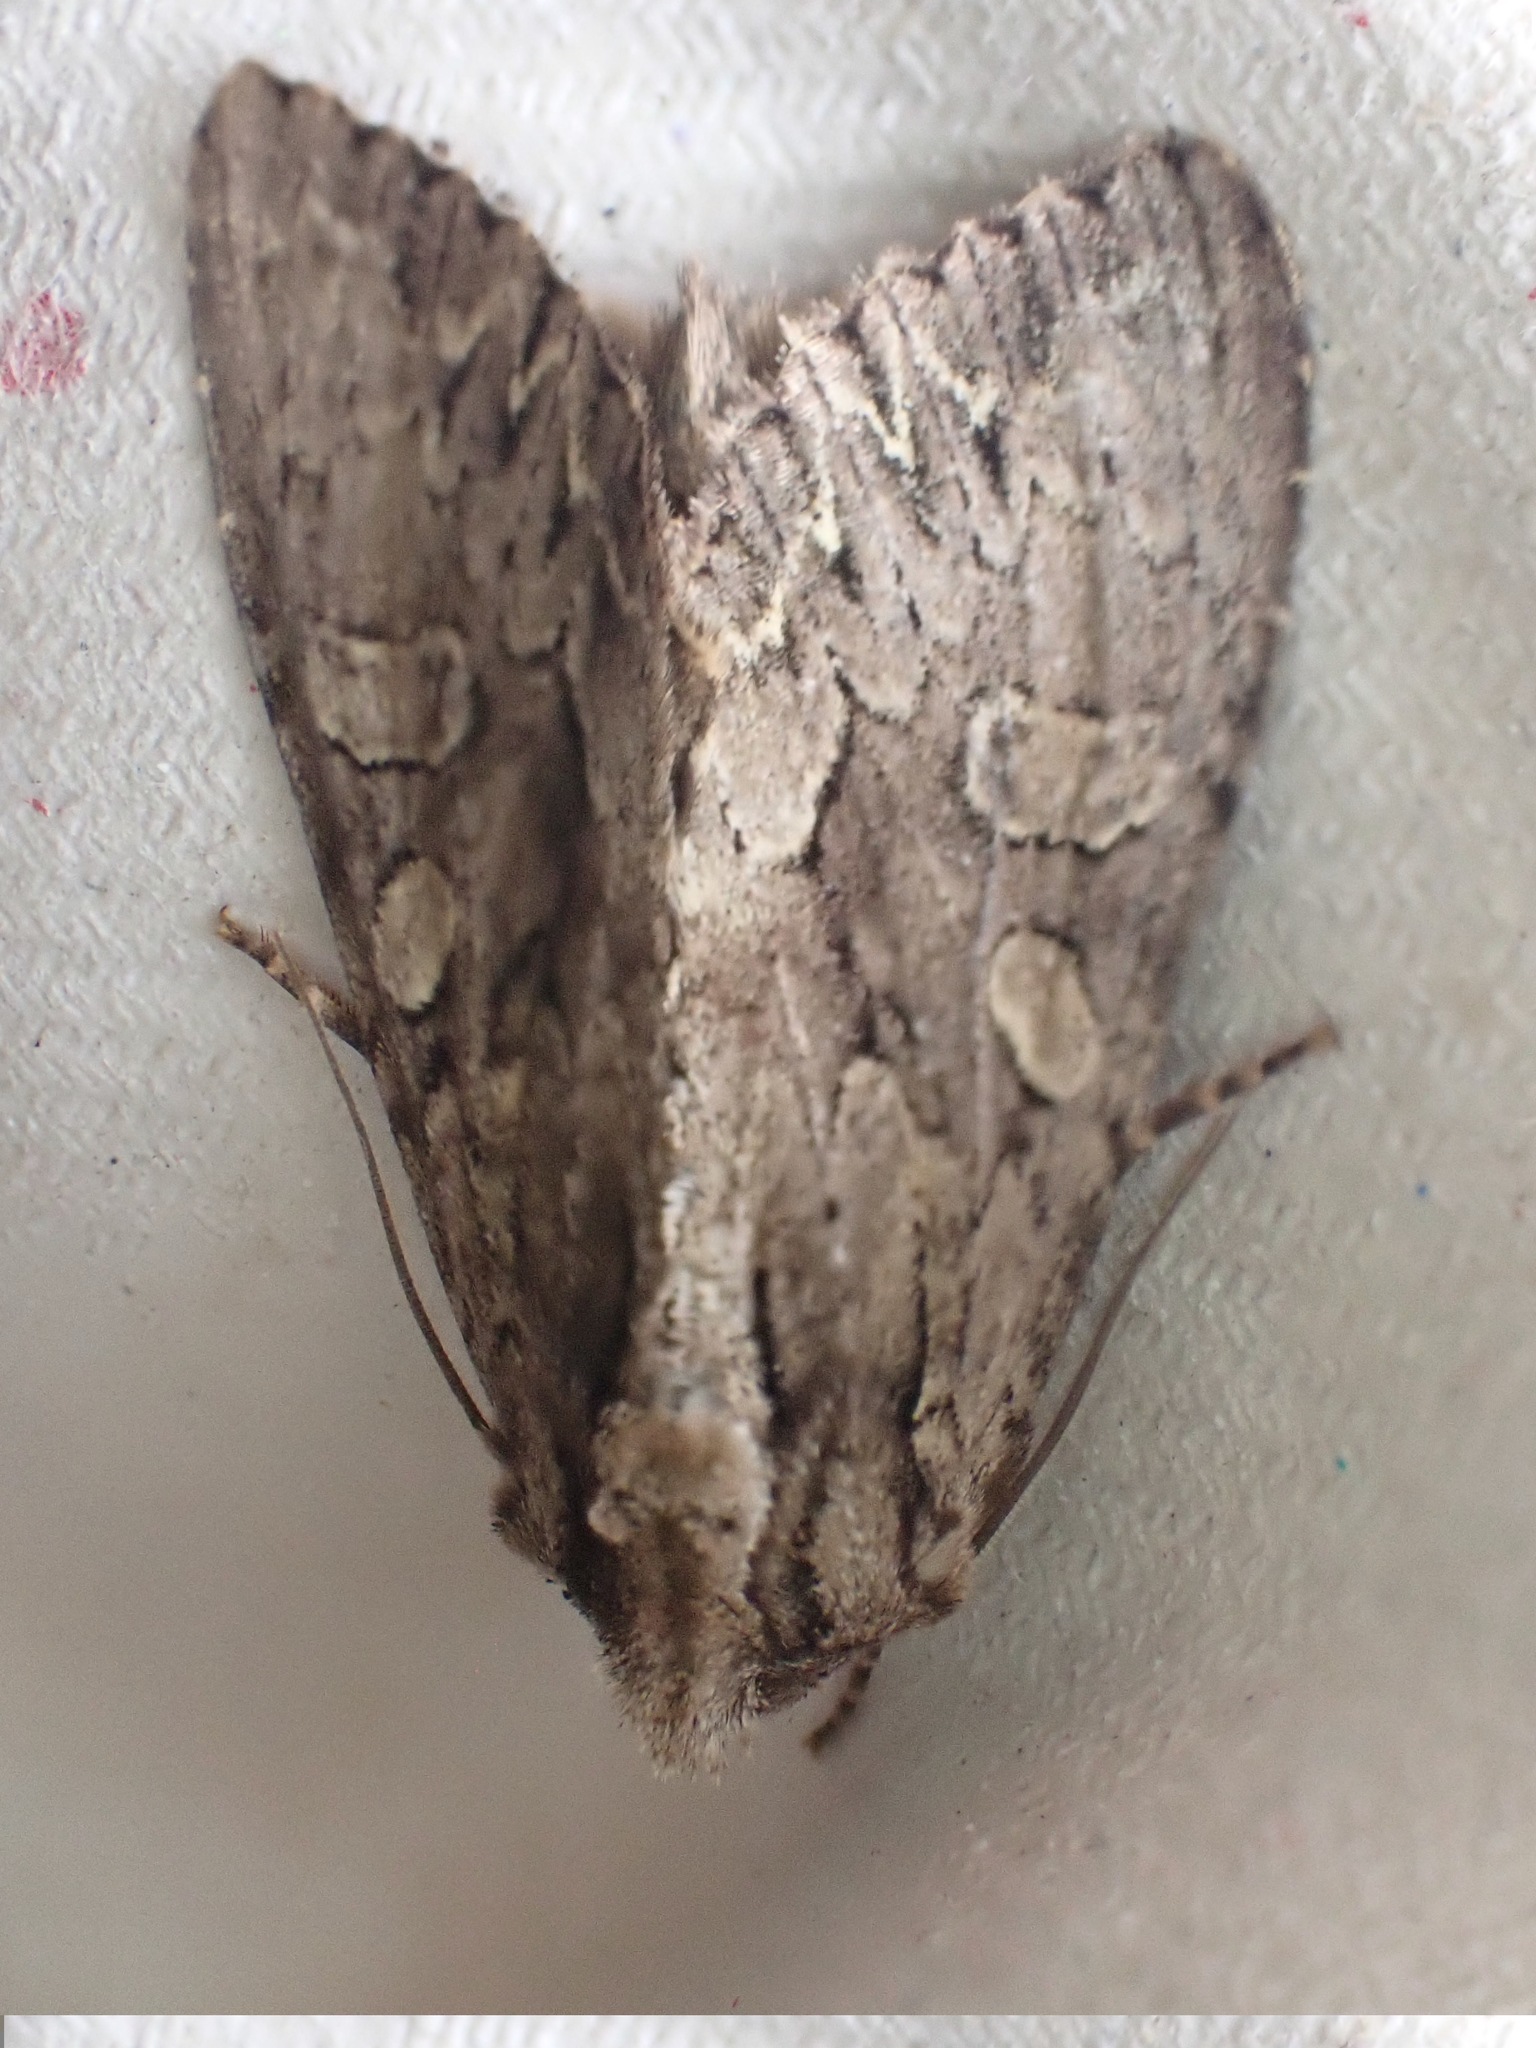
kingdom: Animalia
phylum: Arthropoda
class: Insecta
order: Lepidoptera
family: Noctuidae
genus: Apamea
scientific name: Apamea monoglypha
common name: Dark arches
